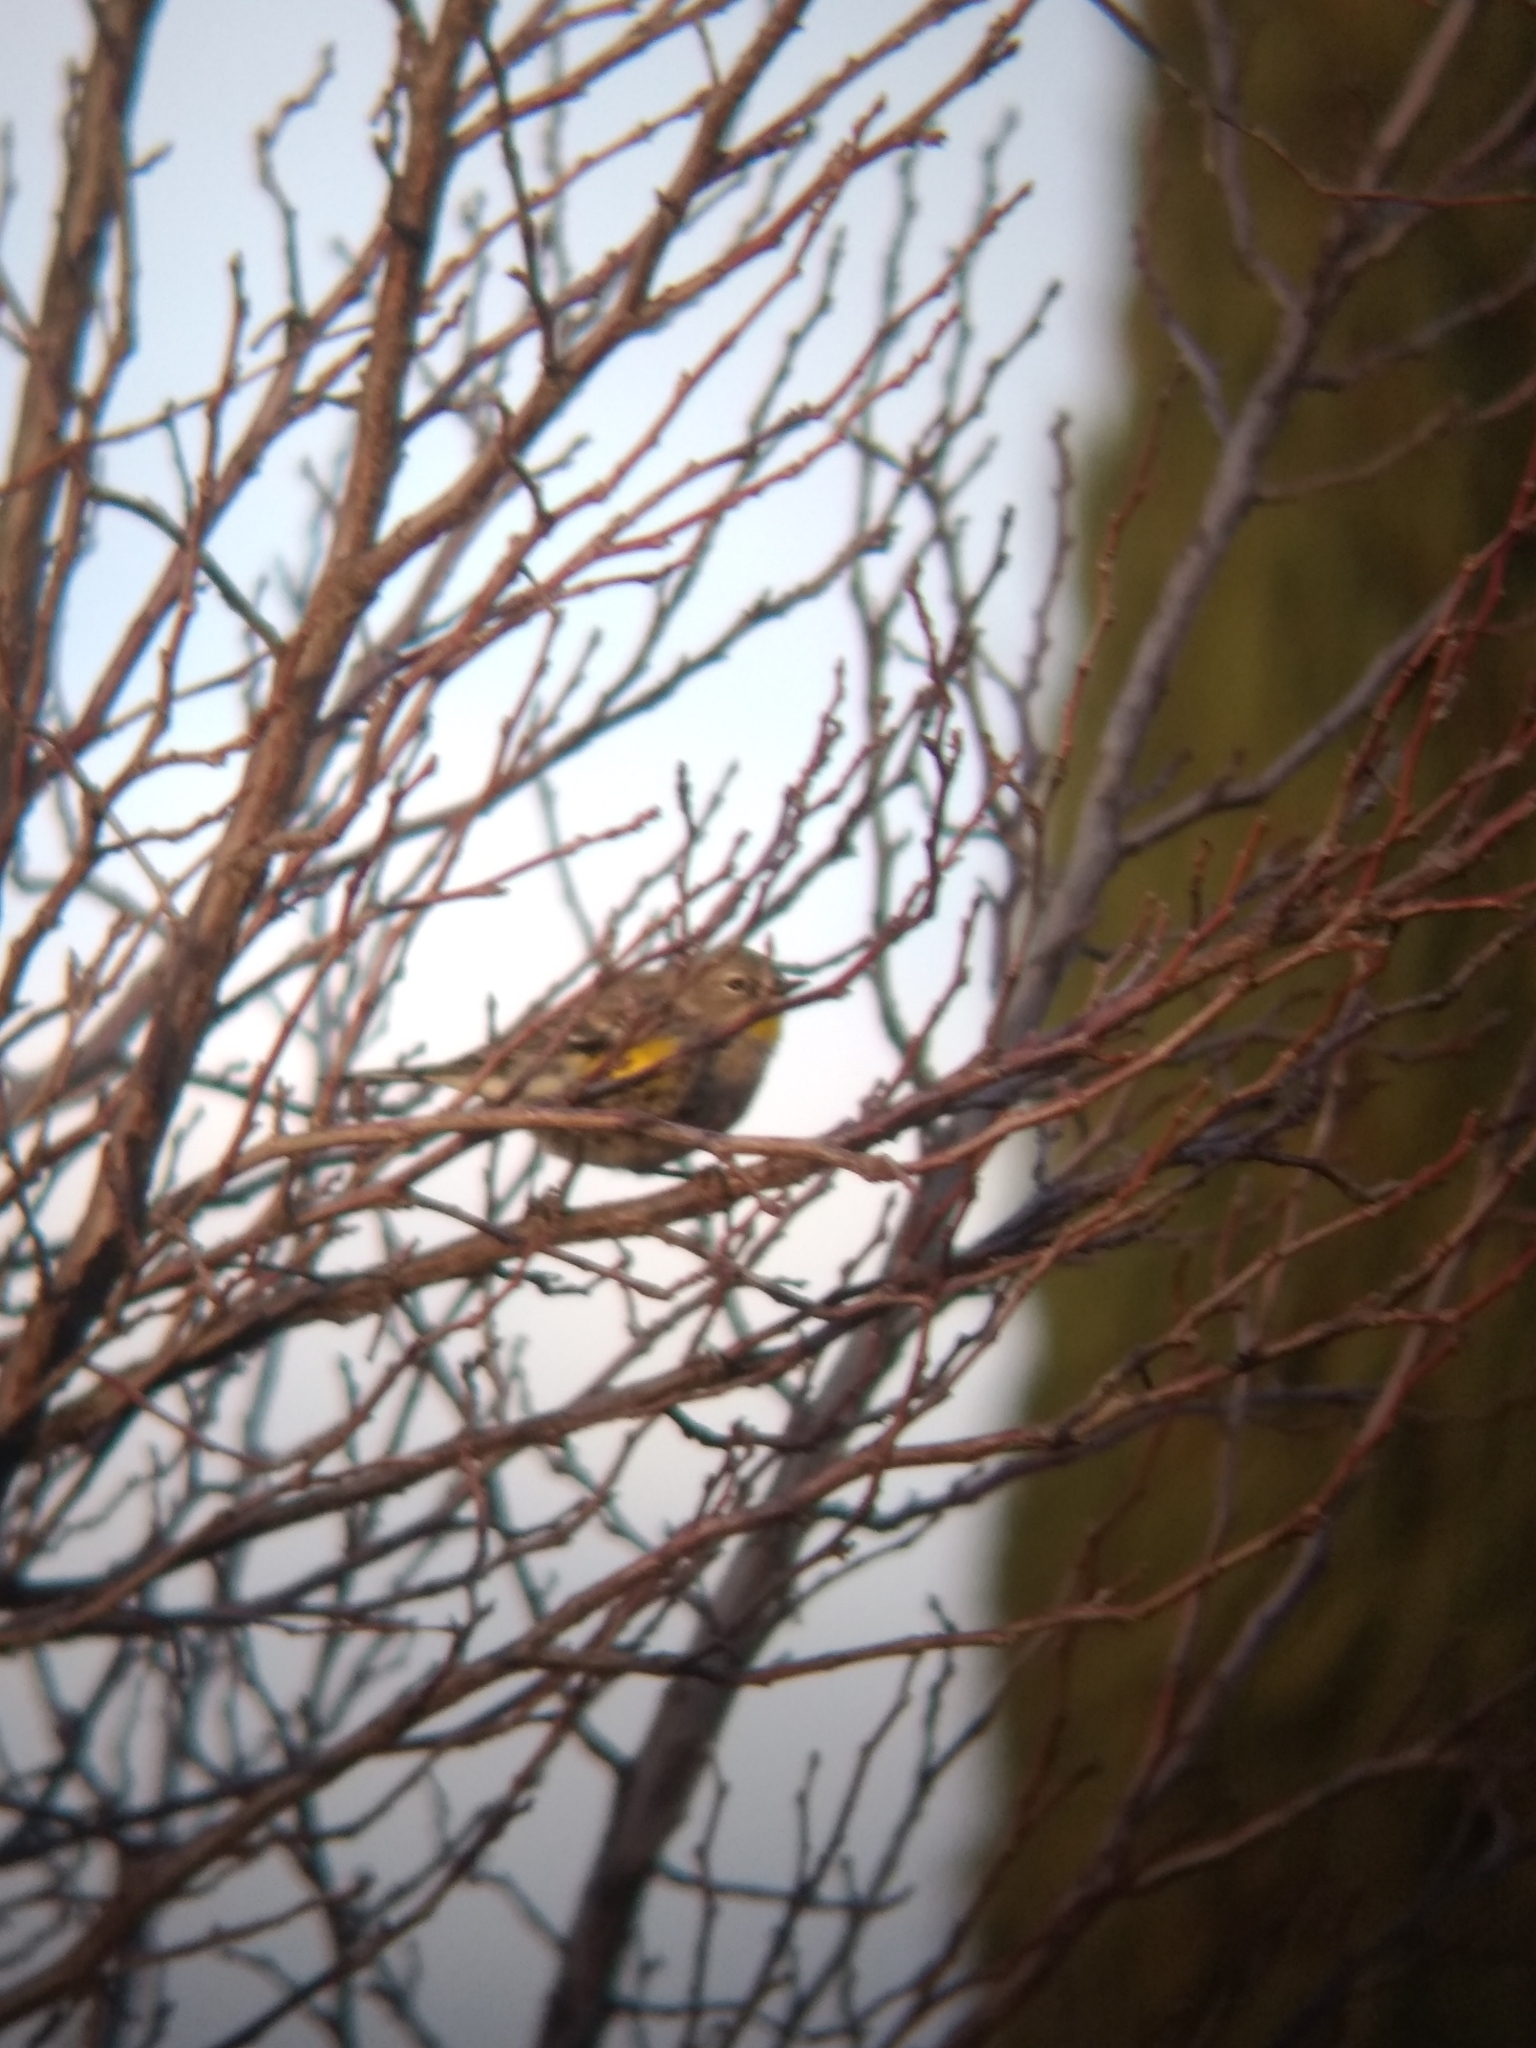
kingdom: Animalia
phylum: Chordata
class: Aves
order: Passeriformes
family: Parulidae
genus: Setophaga
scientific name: Setophaga coronata
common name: Myrtle warbler
